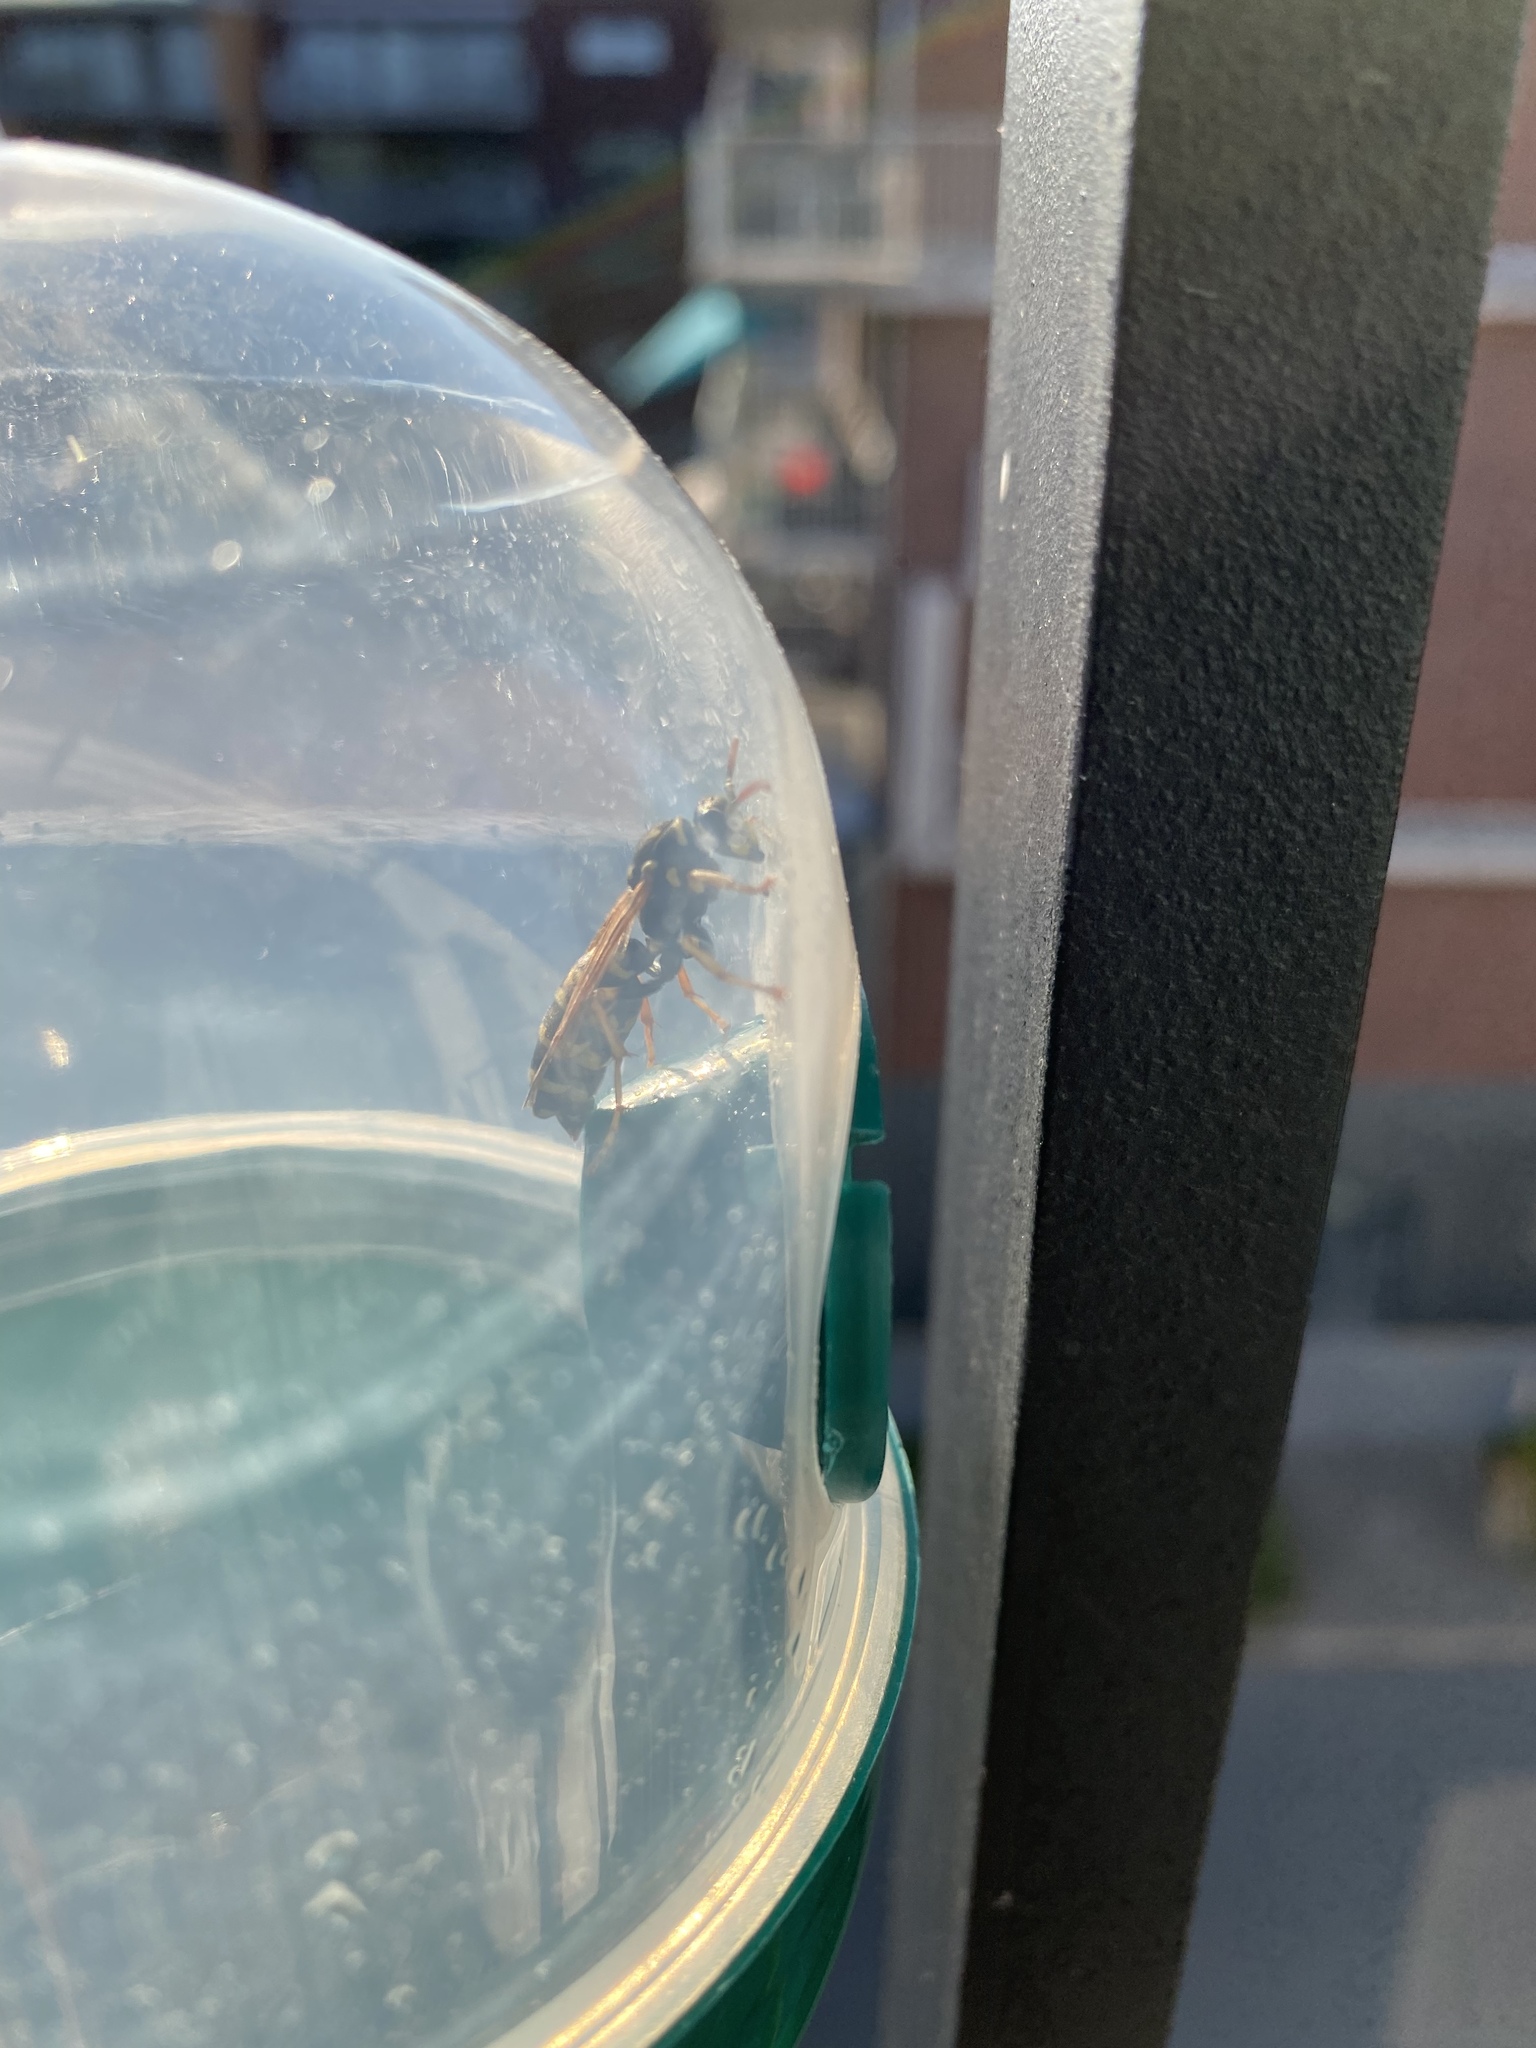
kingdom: Animalia
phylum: Arthropoda
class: Insecta
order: Hymenoptera
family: Eumenidae
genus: Polistes
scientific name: Polistes dominula
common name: Paper wasp
